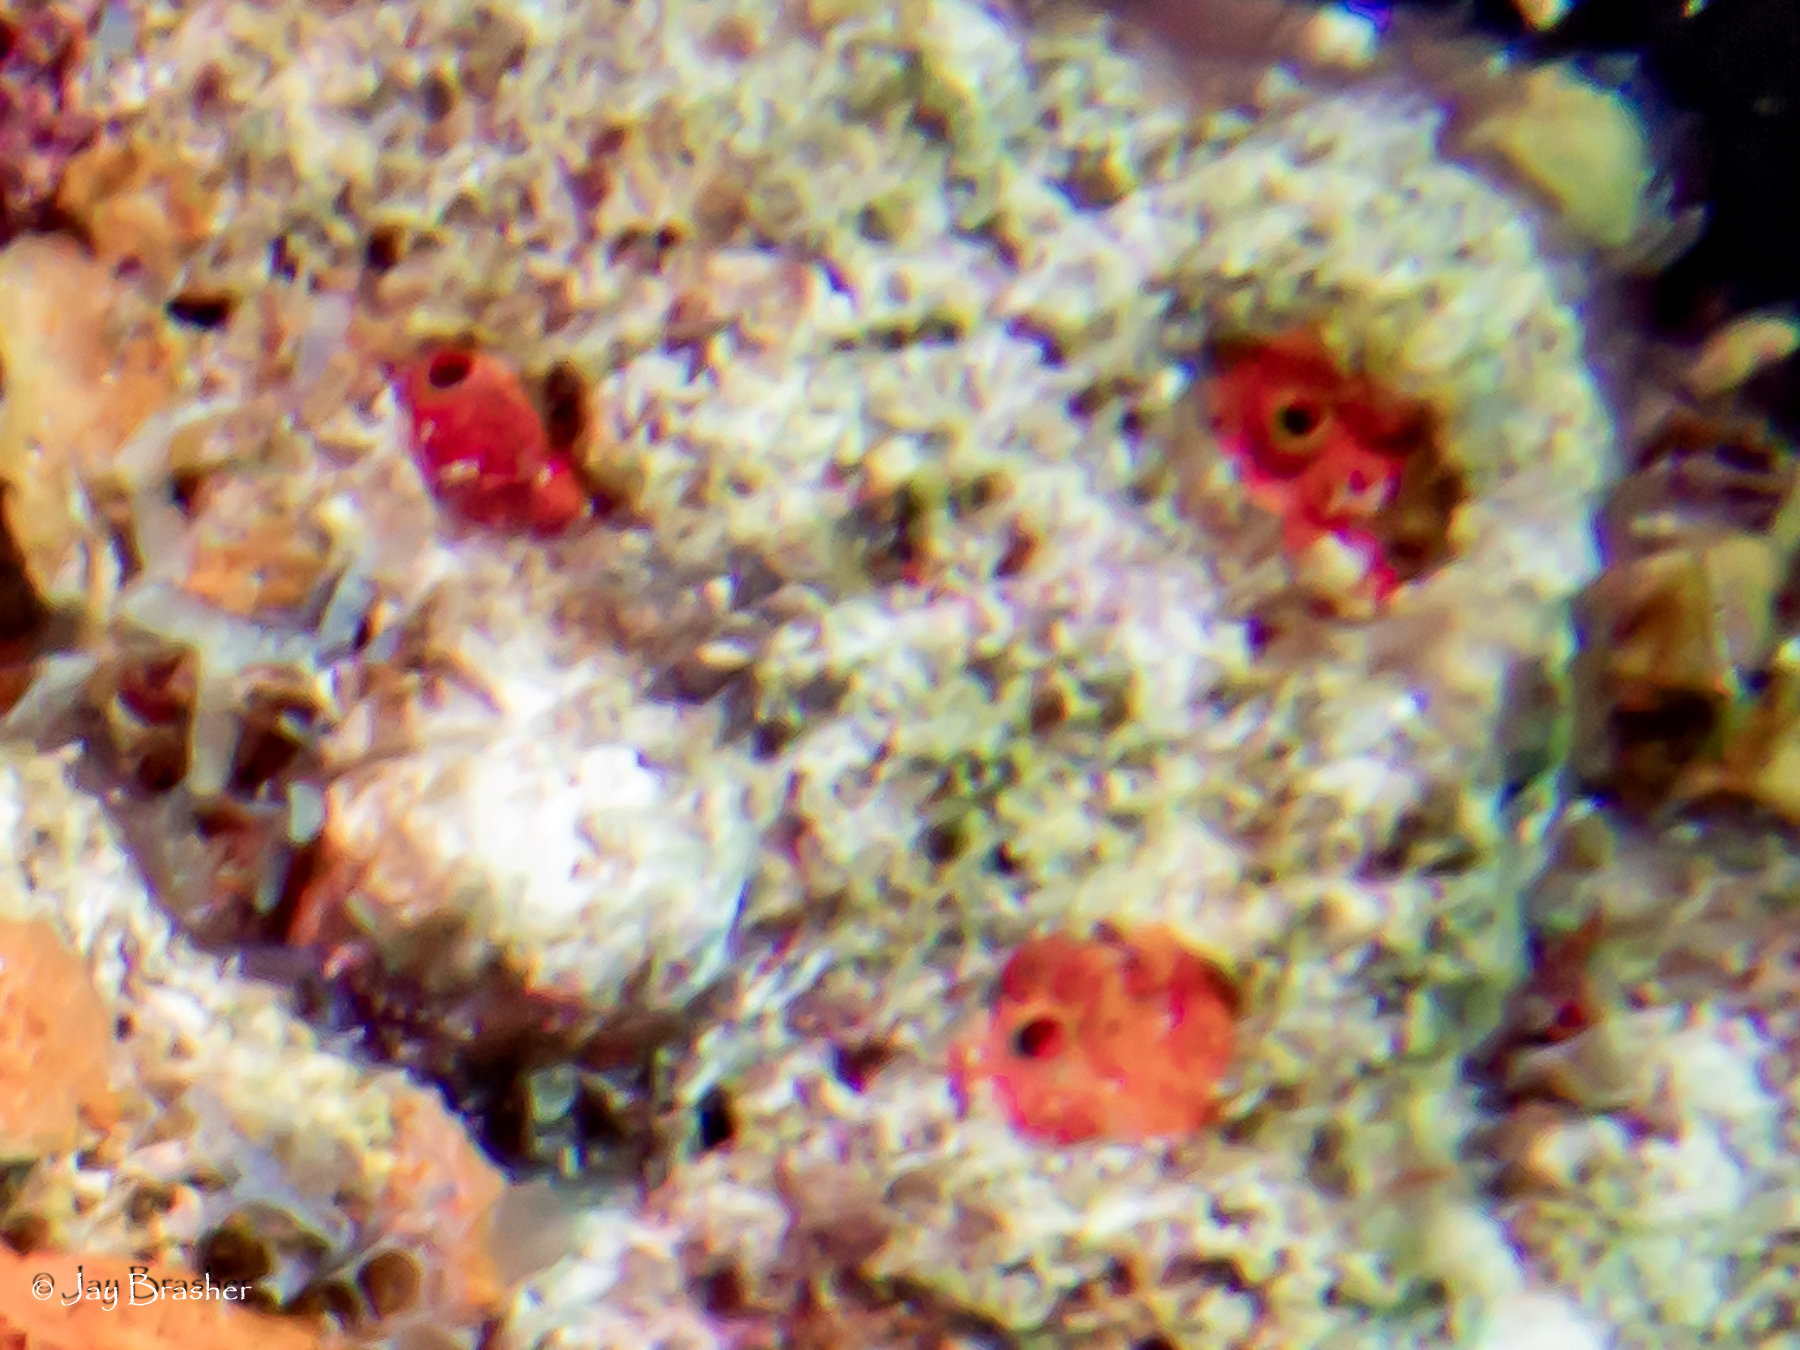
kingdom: Animalia
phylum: Porifera
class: Demospongiae
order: Clionaida
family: Clionaidae
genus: Cliothosa
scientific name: Cliothosa delitrix
